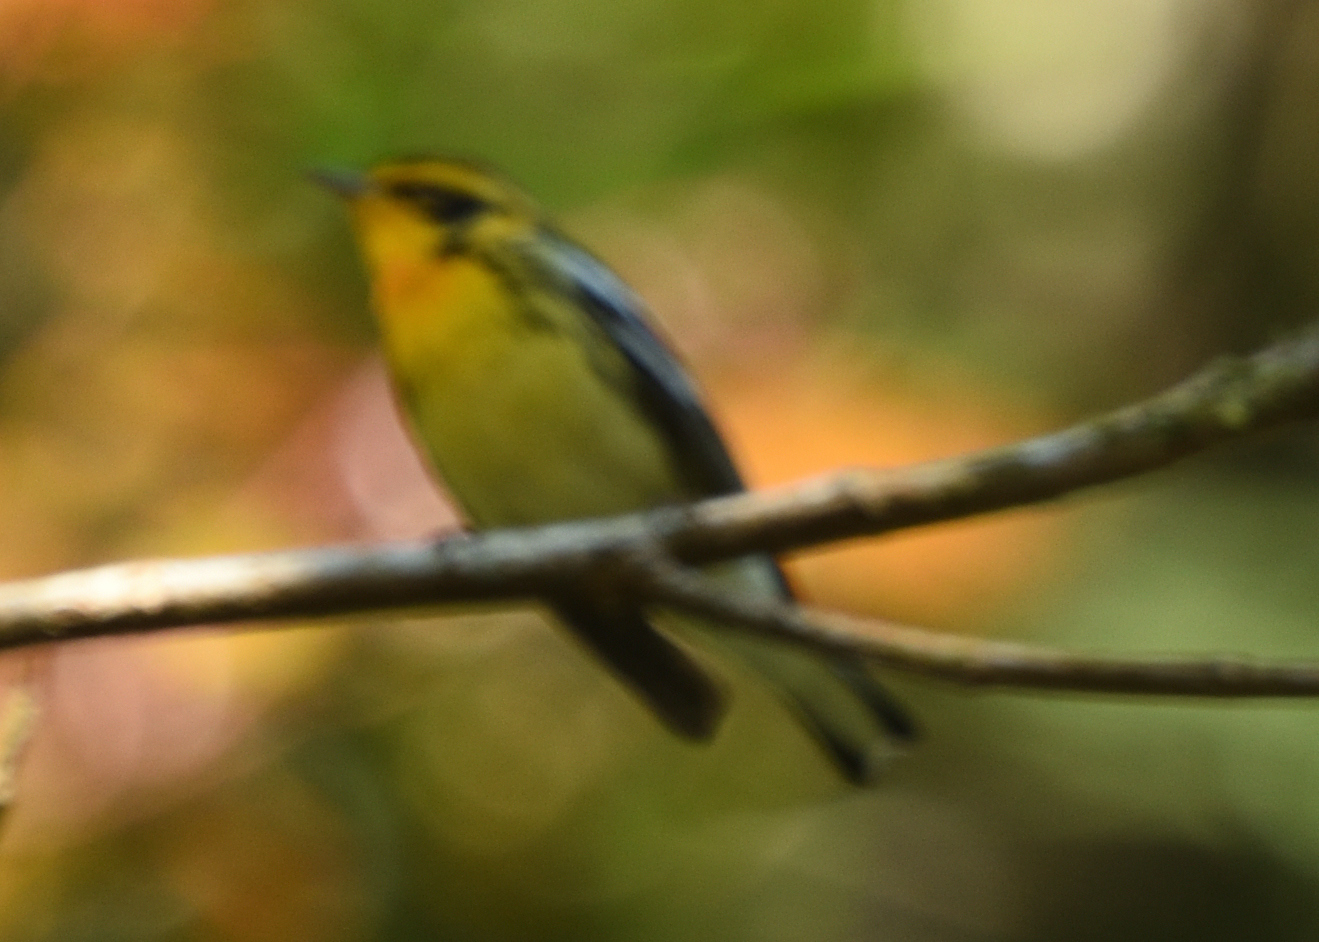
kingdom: Animalia
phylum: Chordata
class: Aves
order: Passeriformes
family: Parulidae
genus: Setophaga
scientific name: Setophaga fusca
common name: Blackburnian warbler
